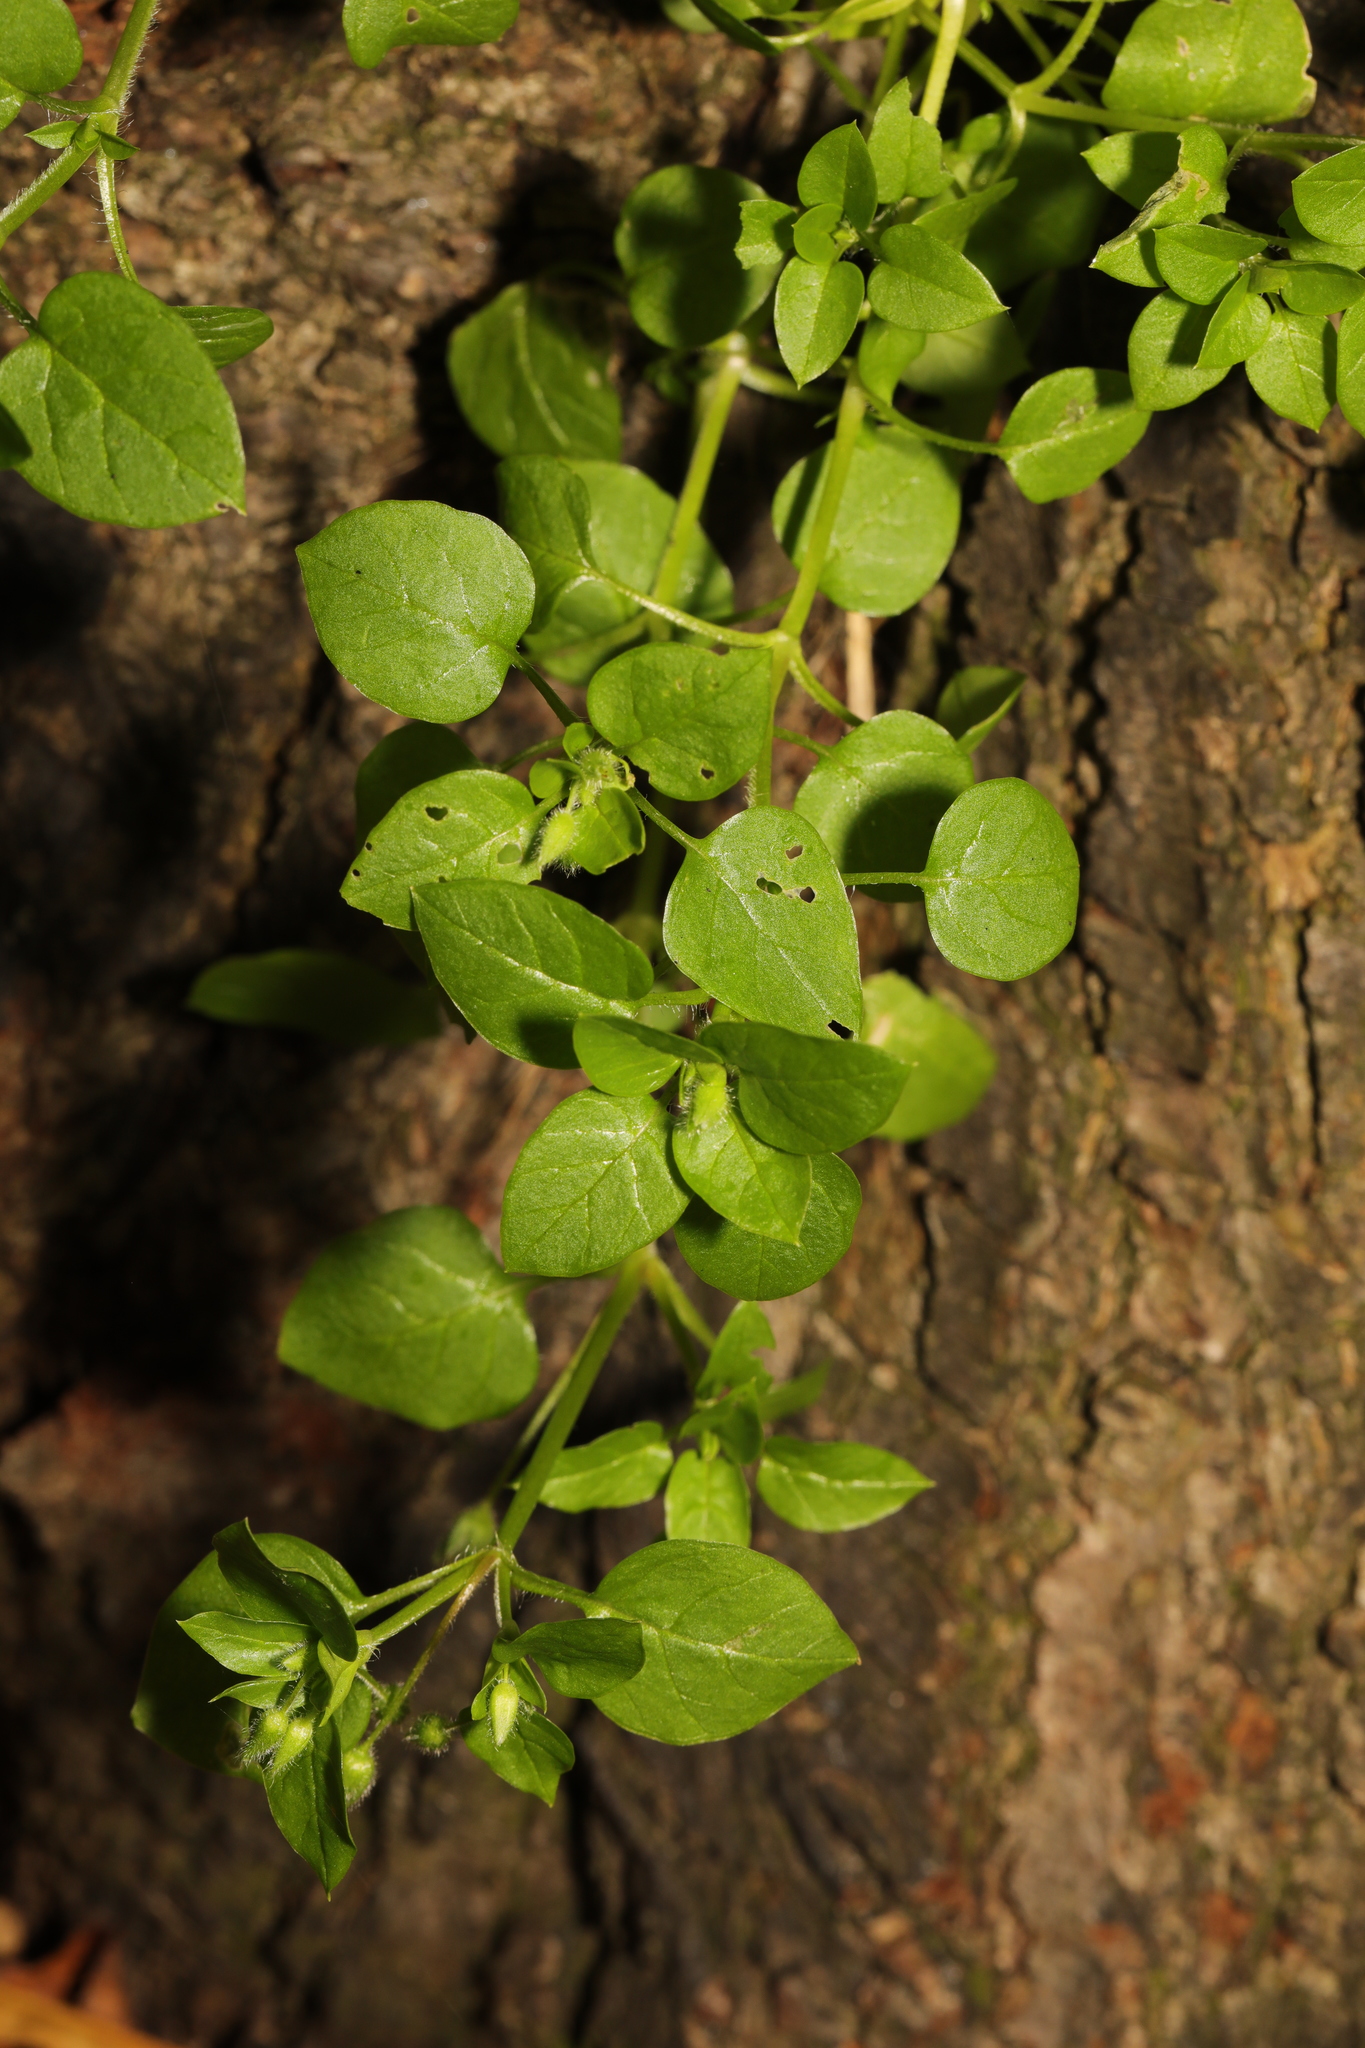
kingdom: Plantae
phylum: Tracheophyta
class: Magnoliopsida
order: Caryophyllales
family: Caryophyllaceae
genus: Stellaria
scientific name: Stellaria media
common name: Common chickweed
